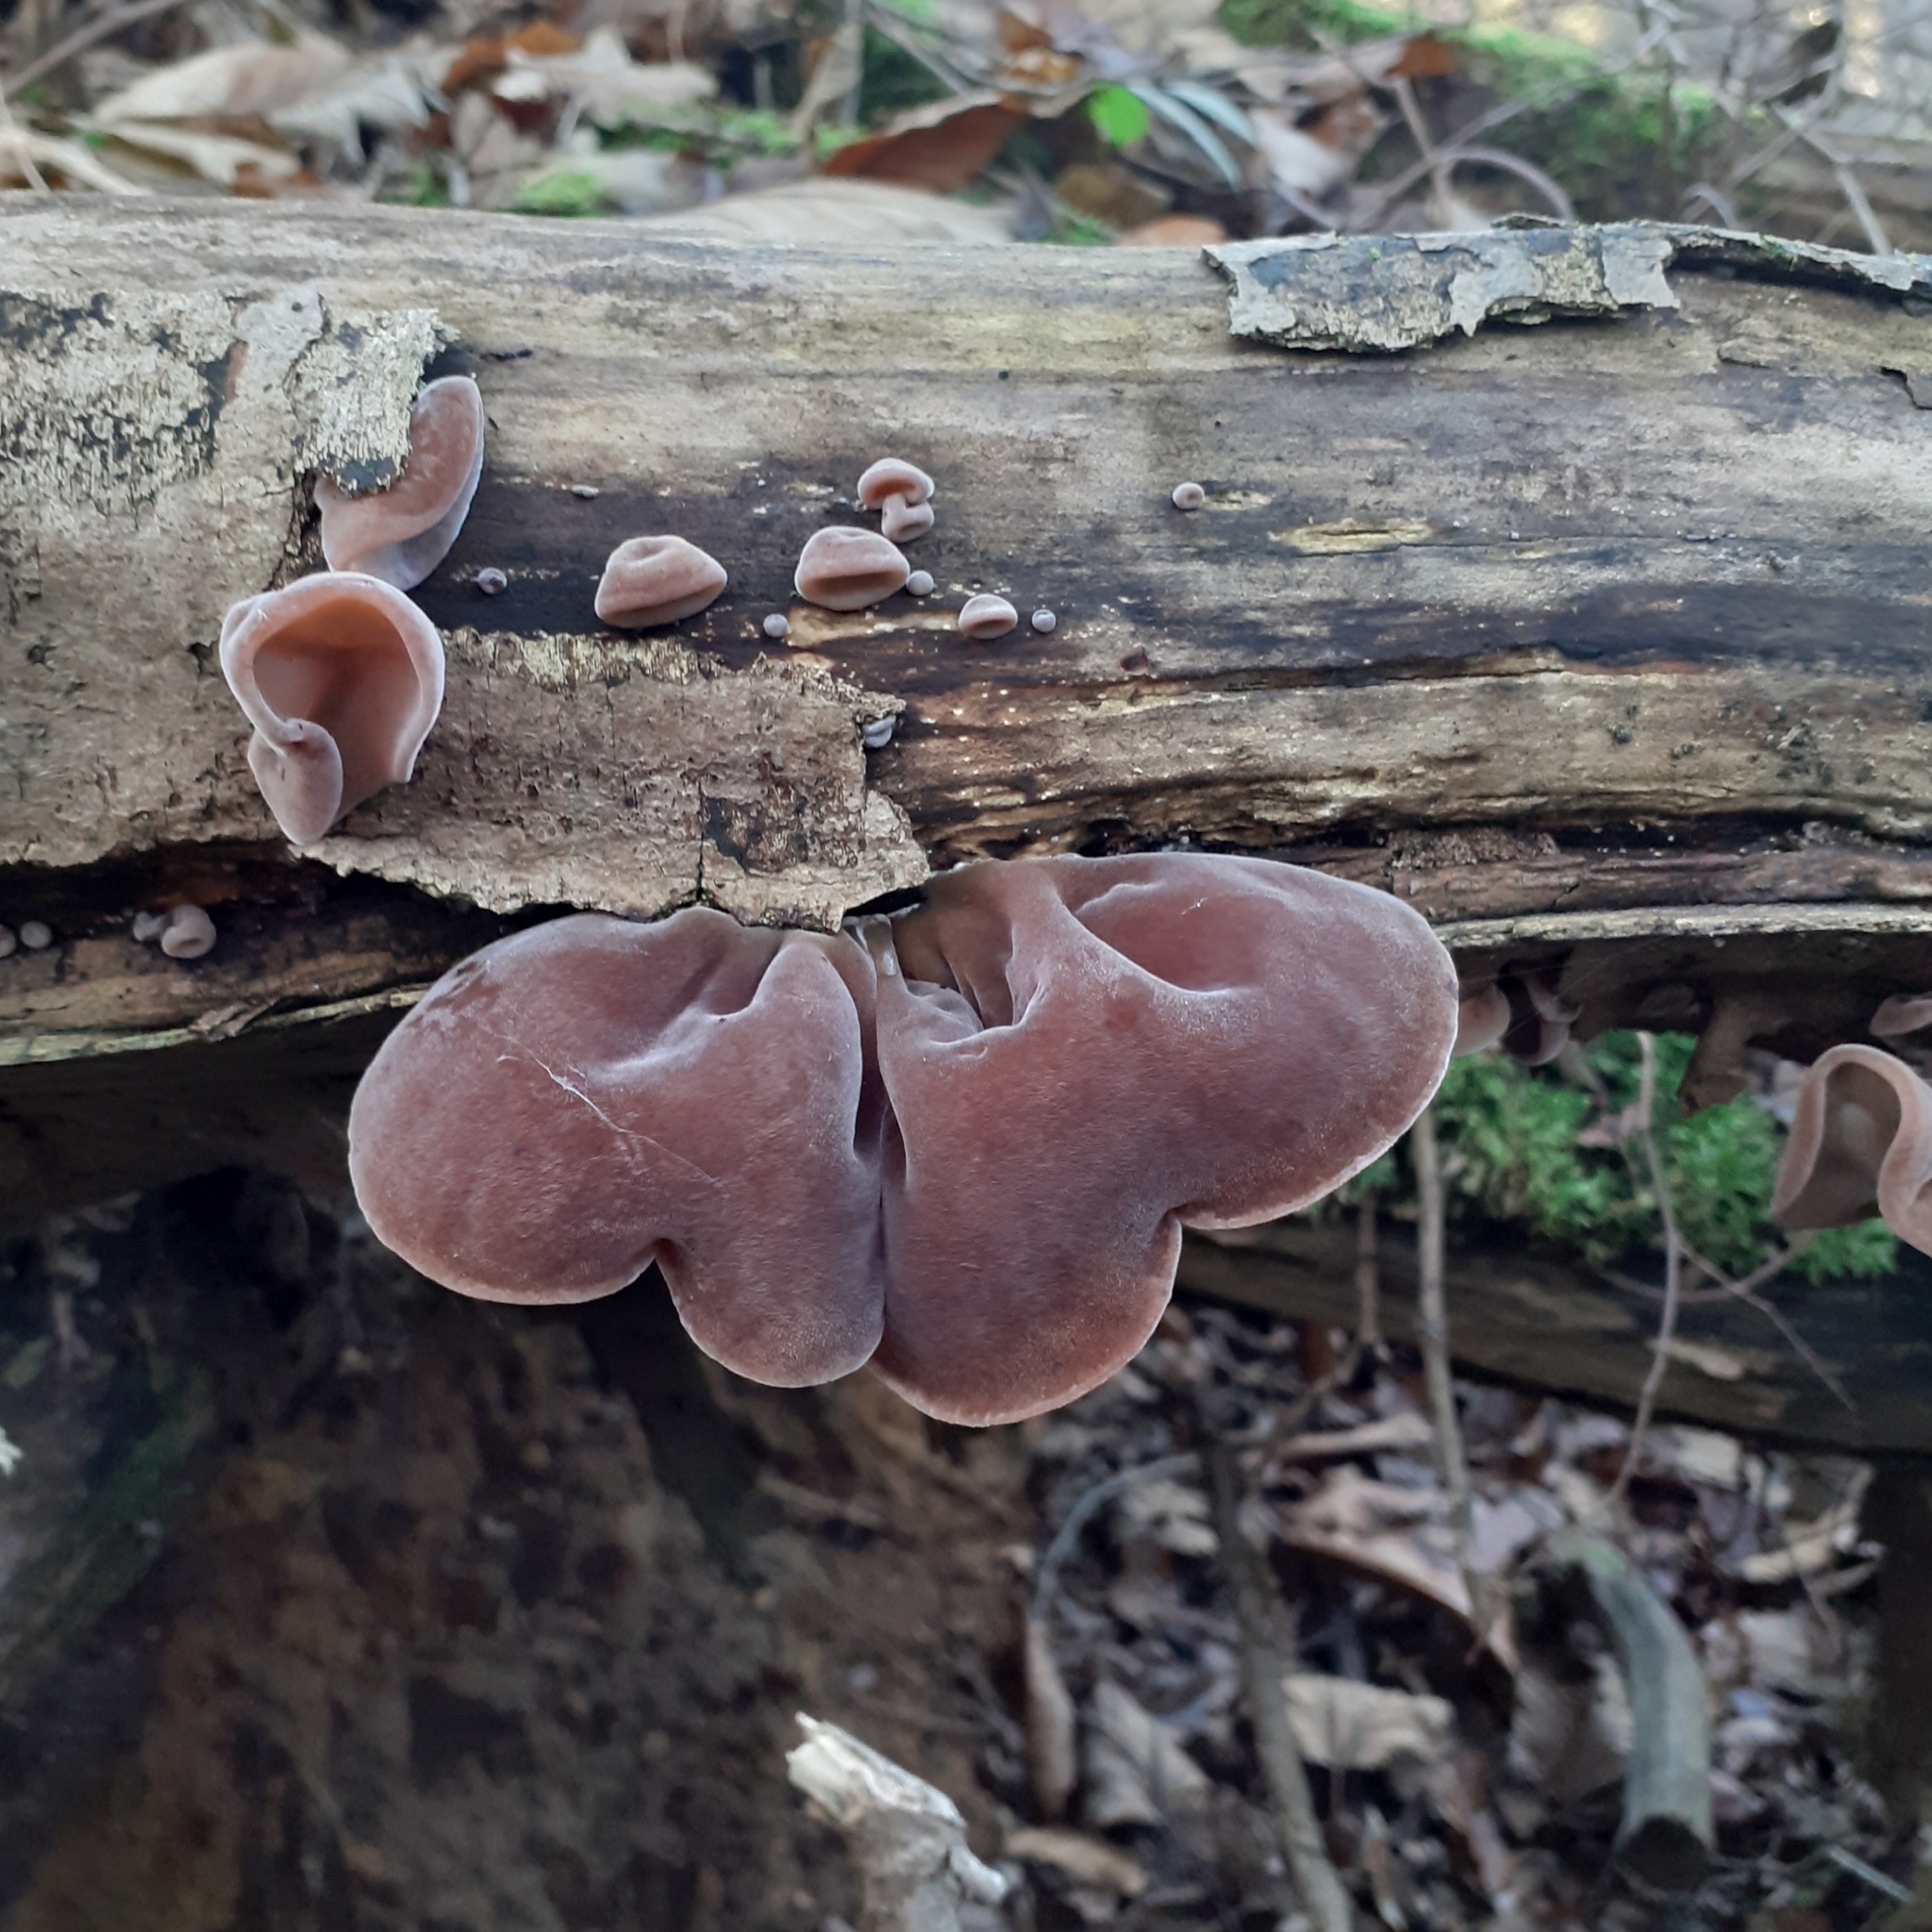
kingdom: Fungi
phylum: Basidiomycota
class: Agaricomycetes
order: Auriculariales
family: Auriculariaceae
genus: Auricularia
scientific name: Auricularia auricula-judae
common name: Jelly ear
